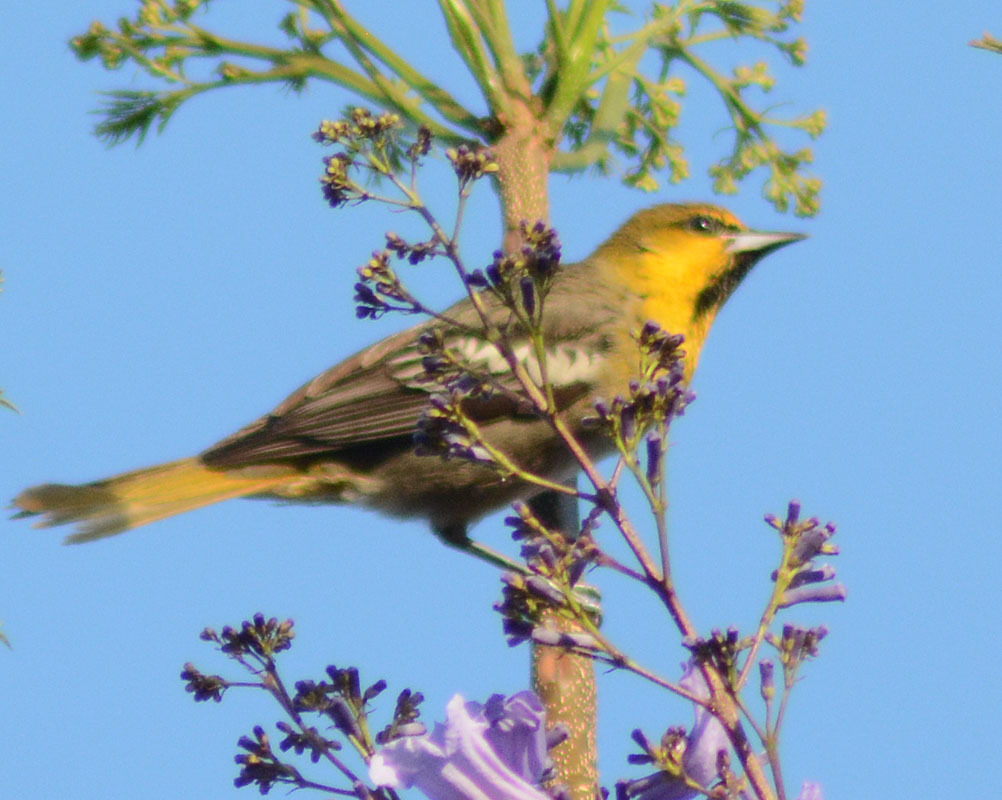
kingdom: Animalia
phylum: Chordata
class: Aves
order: Passeriformes
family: Icteridae
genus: Icterus
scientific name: Icterus abeillei
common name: Black-backed oriole
